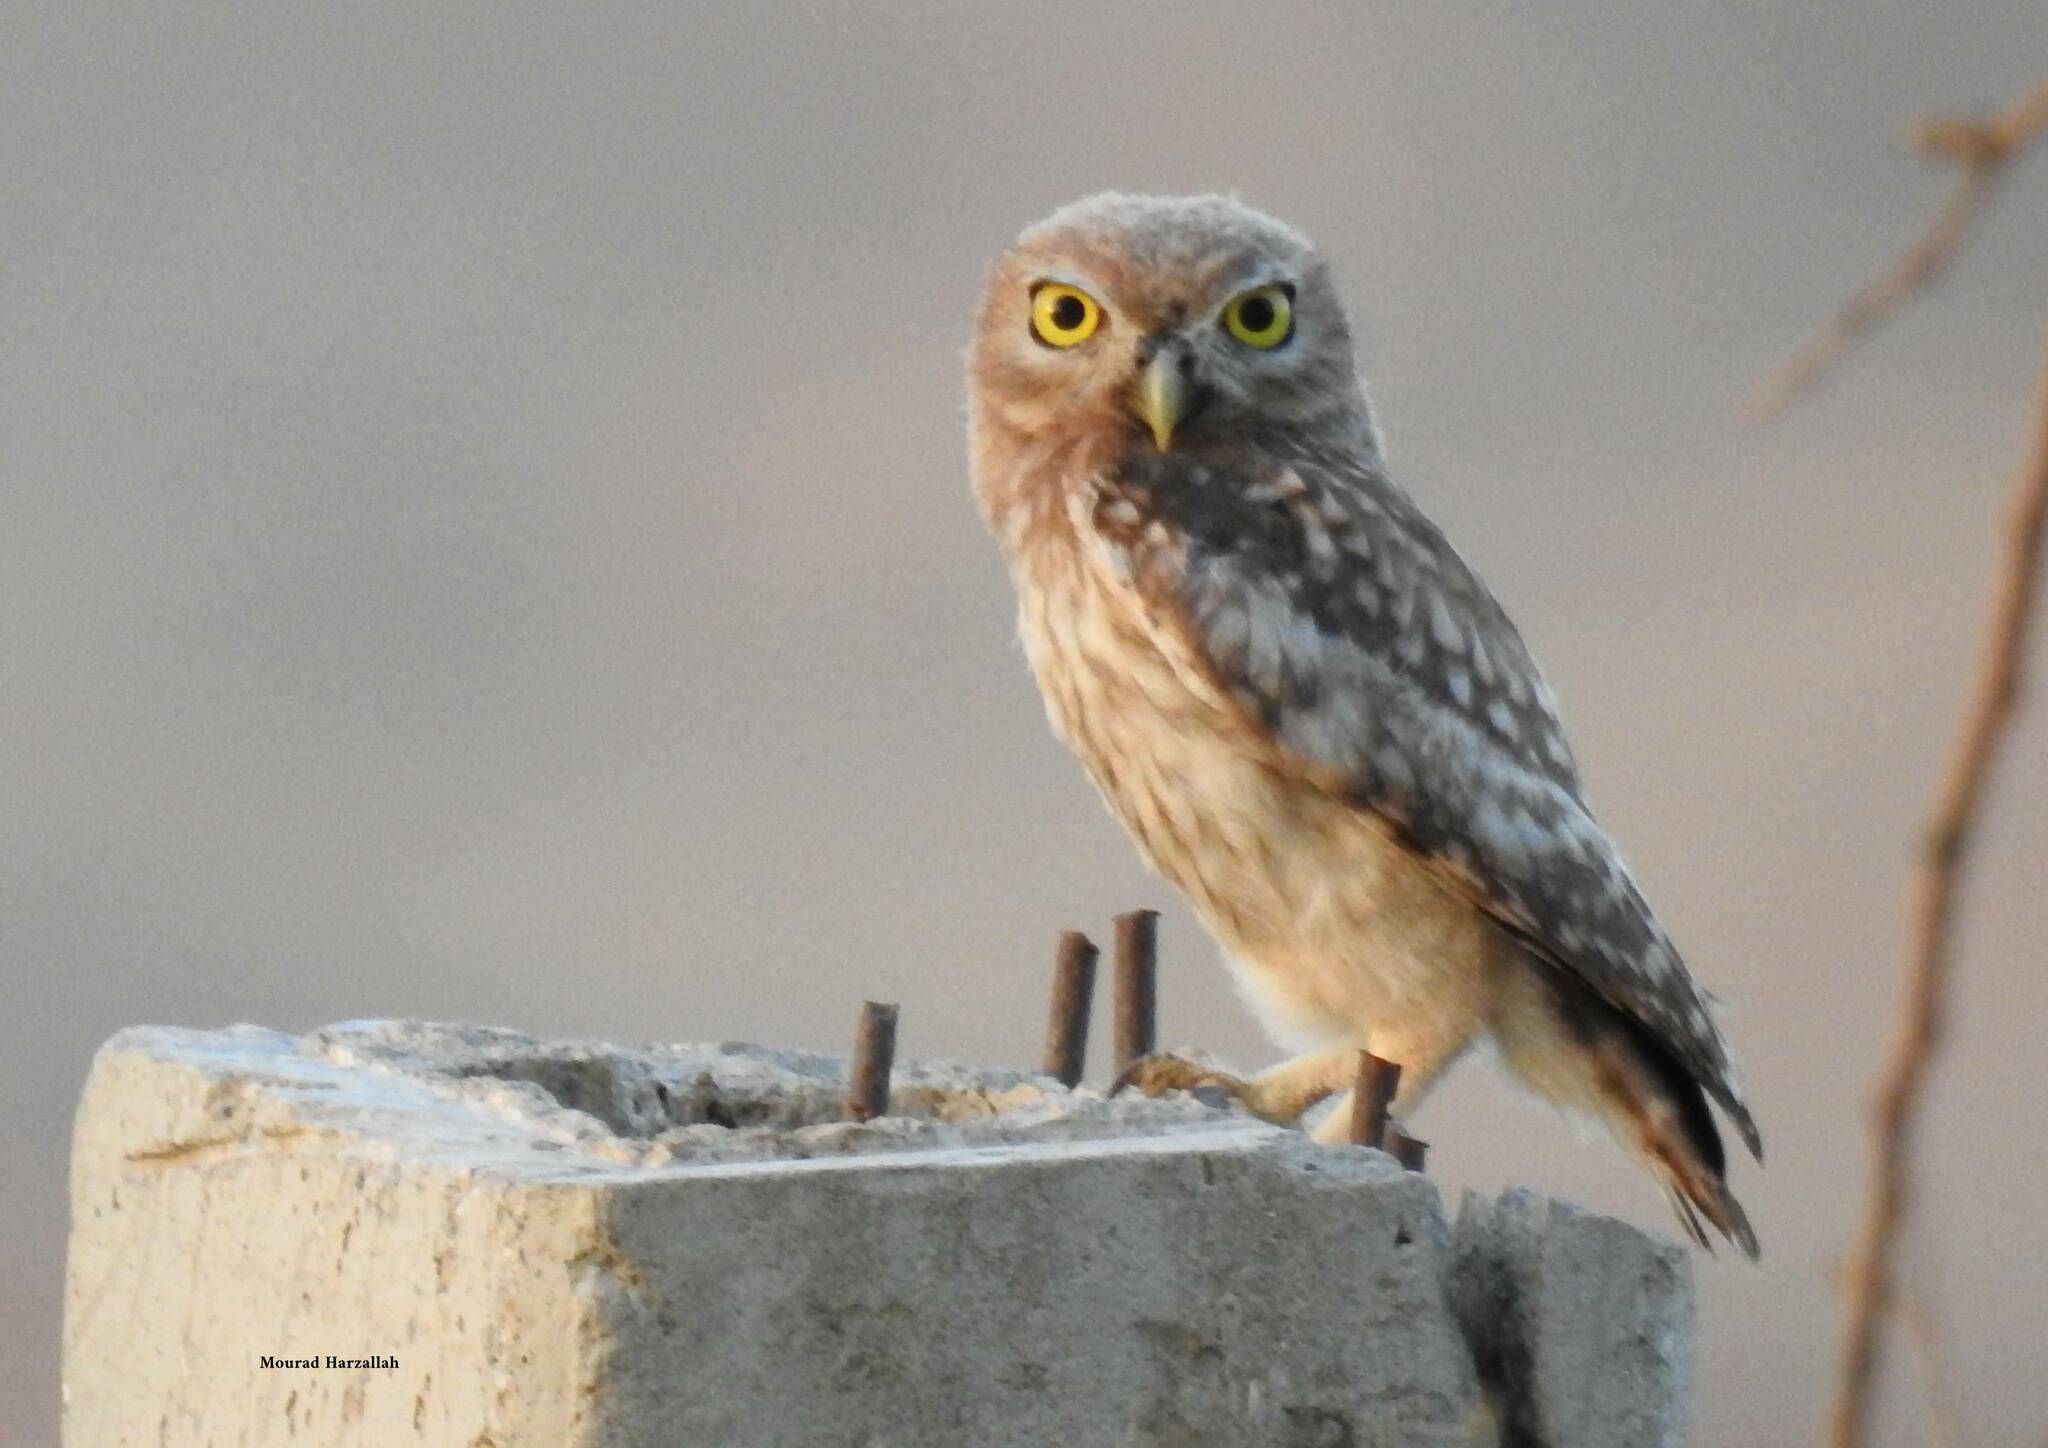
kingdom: Animalia
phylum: Chordata
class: Aves
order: Strigiformes
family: Strigidae
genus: Athene
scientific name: Athene noctua
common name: Little owl
